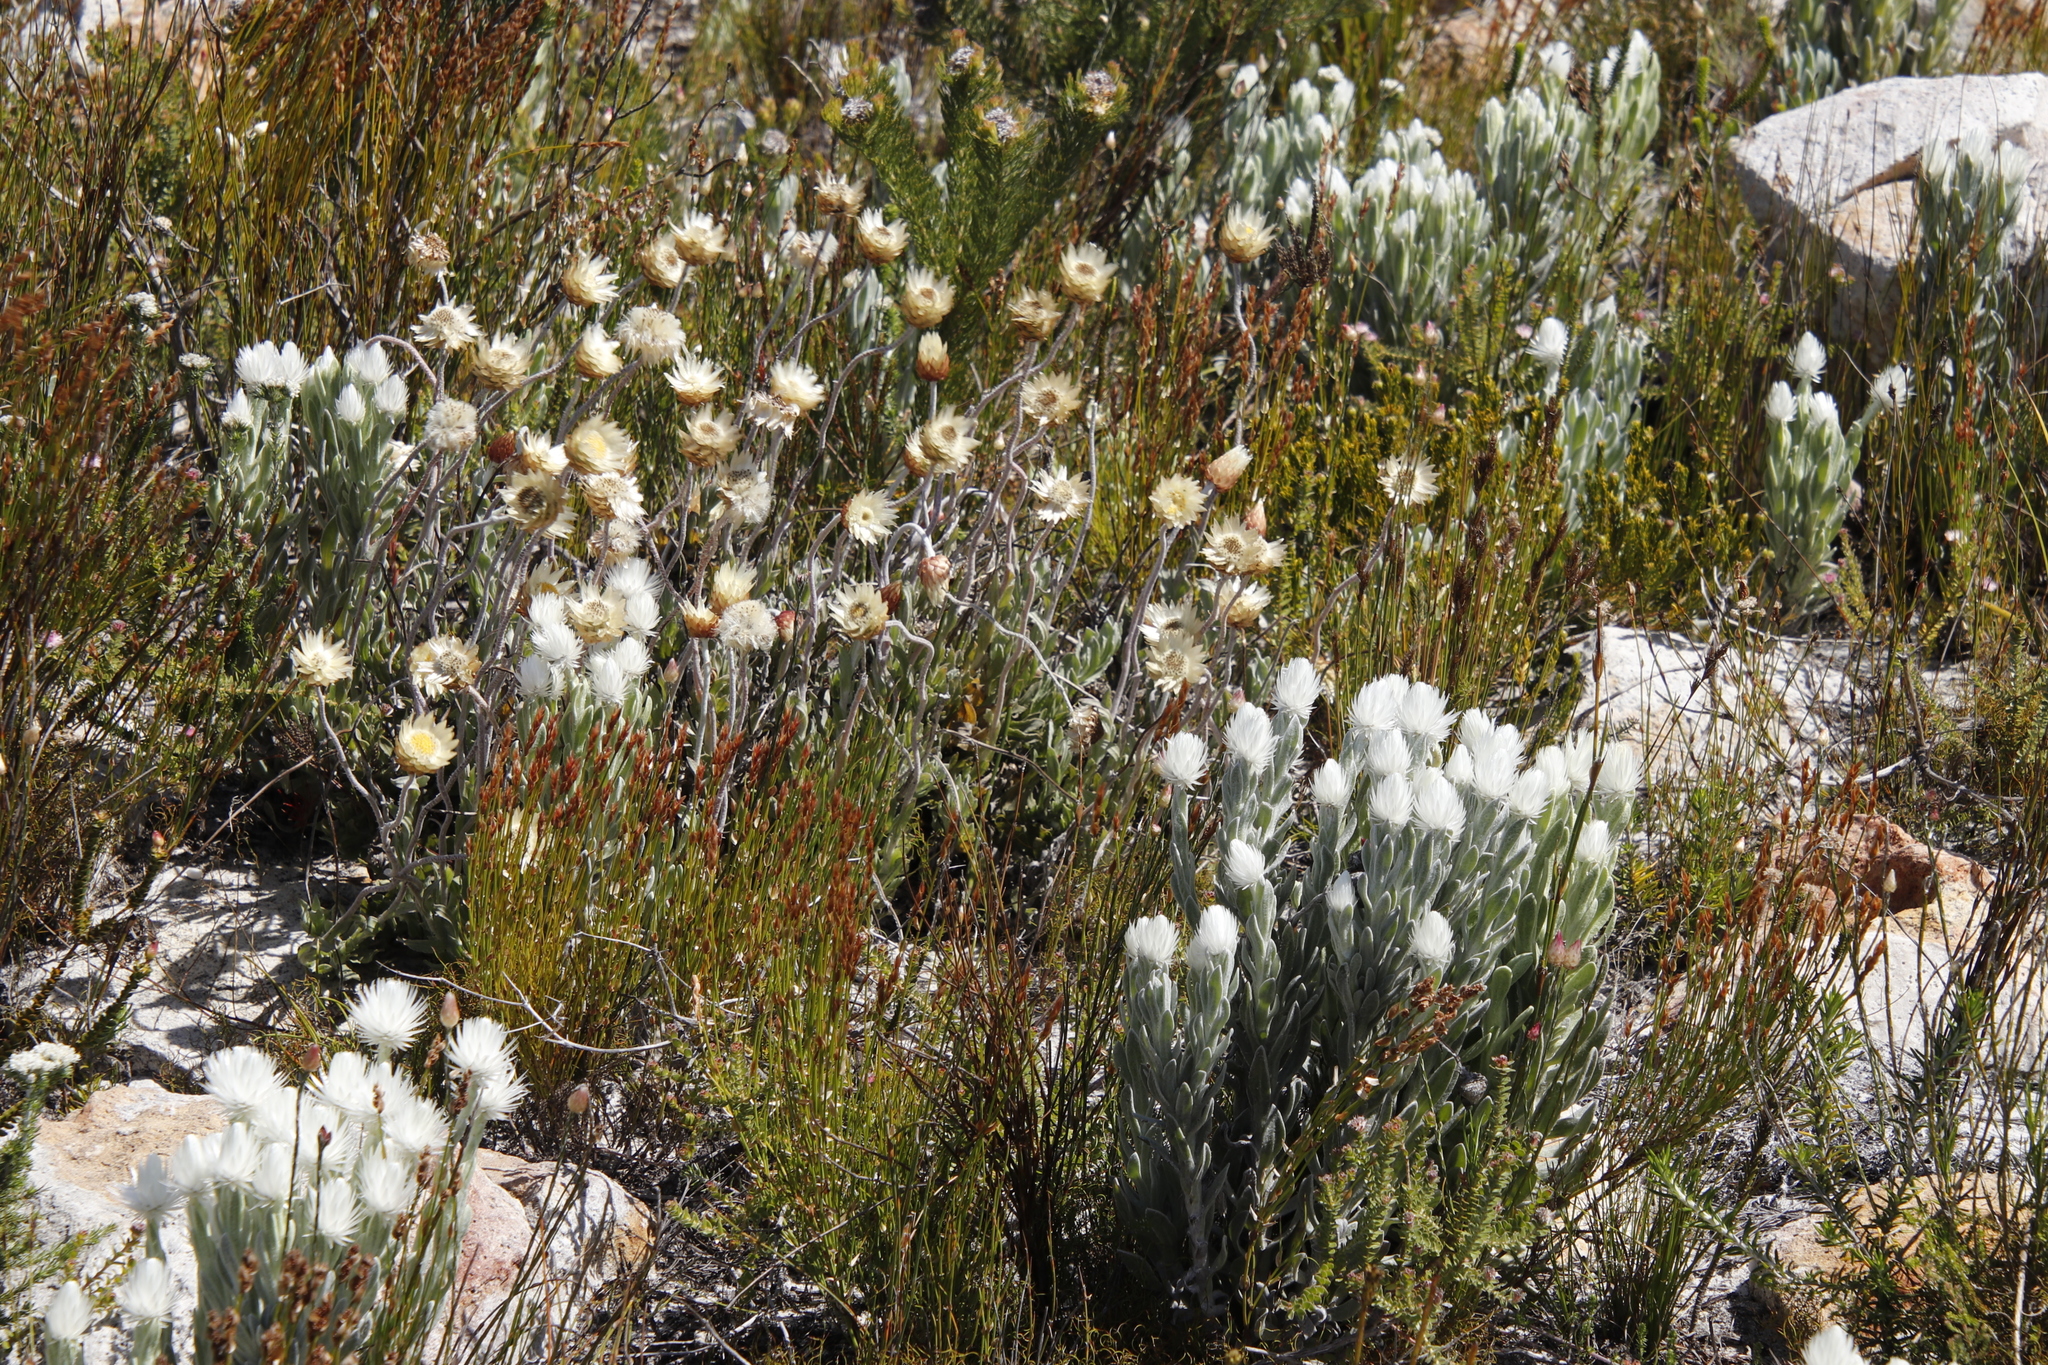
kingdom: Plantae
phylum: Tracheophyta
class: Magnoliopsida
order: Asterales
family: Asteraceae
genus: Syncarpha
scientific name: Syncarpha vestita
